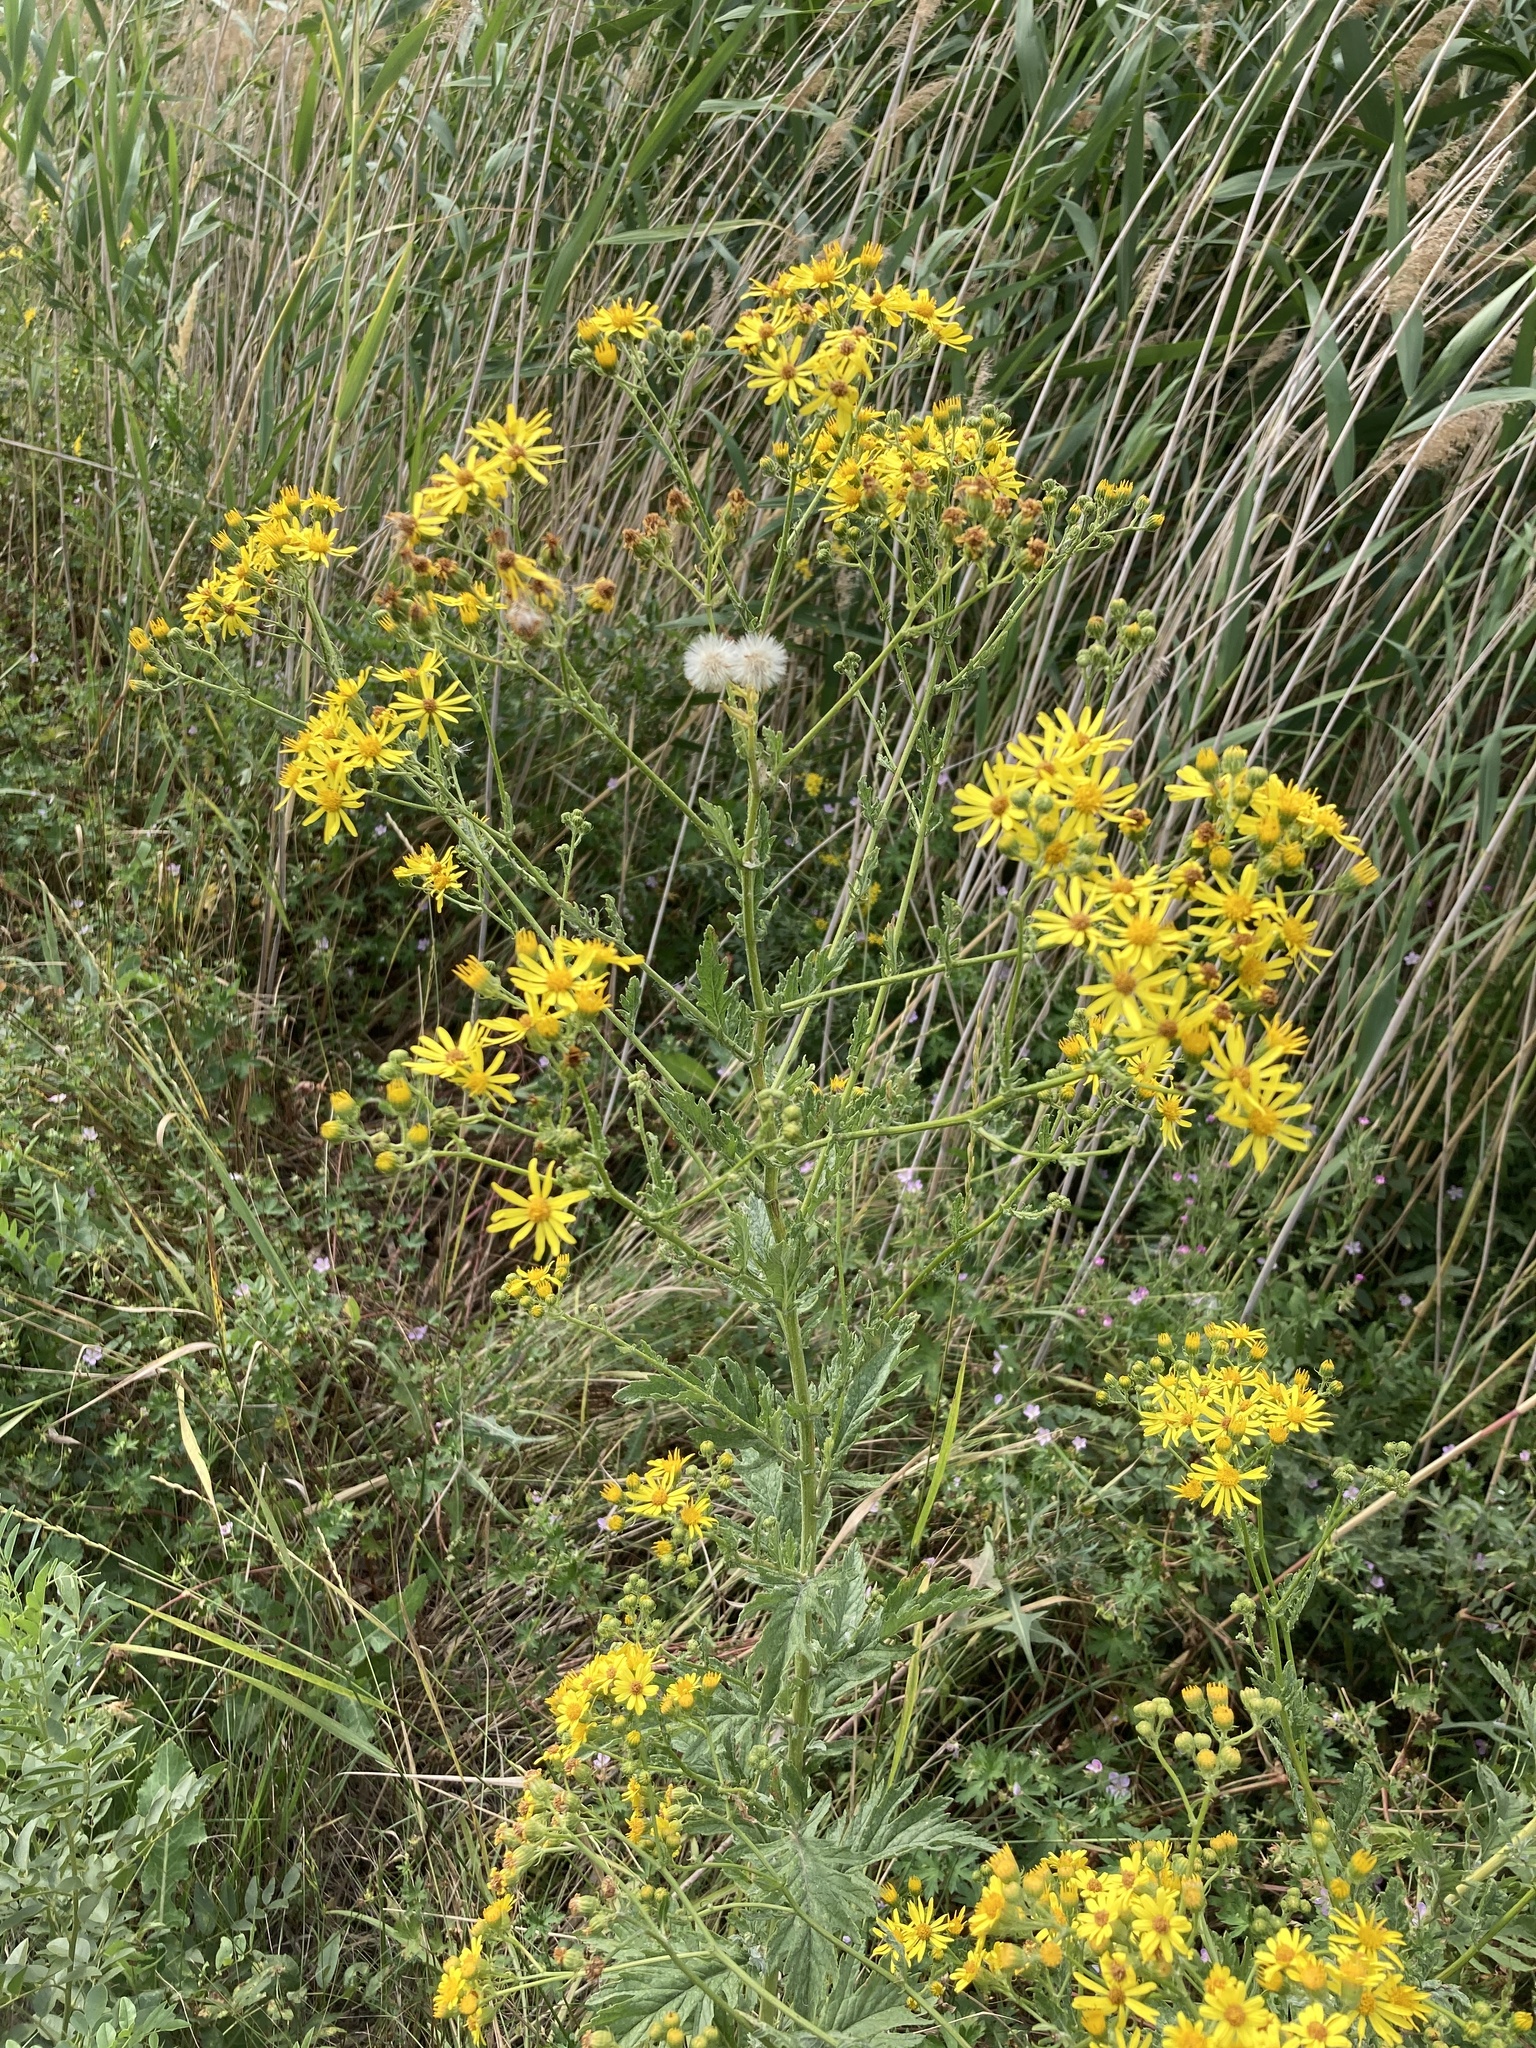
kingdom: Plantae
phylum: Tracheophyta
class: Magnoliopsida
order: Asterales
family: Asteraceae
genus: Jacobaea
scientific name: Jacobaea erucifolia
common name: Hoary ragwort
